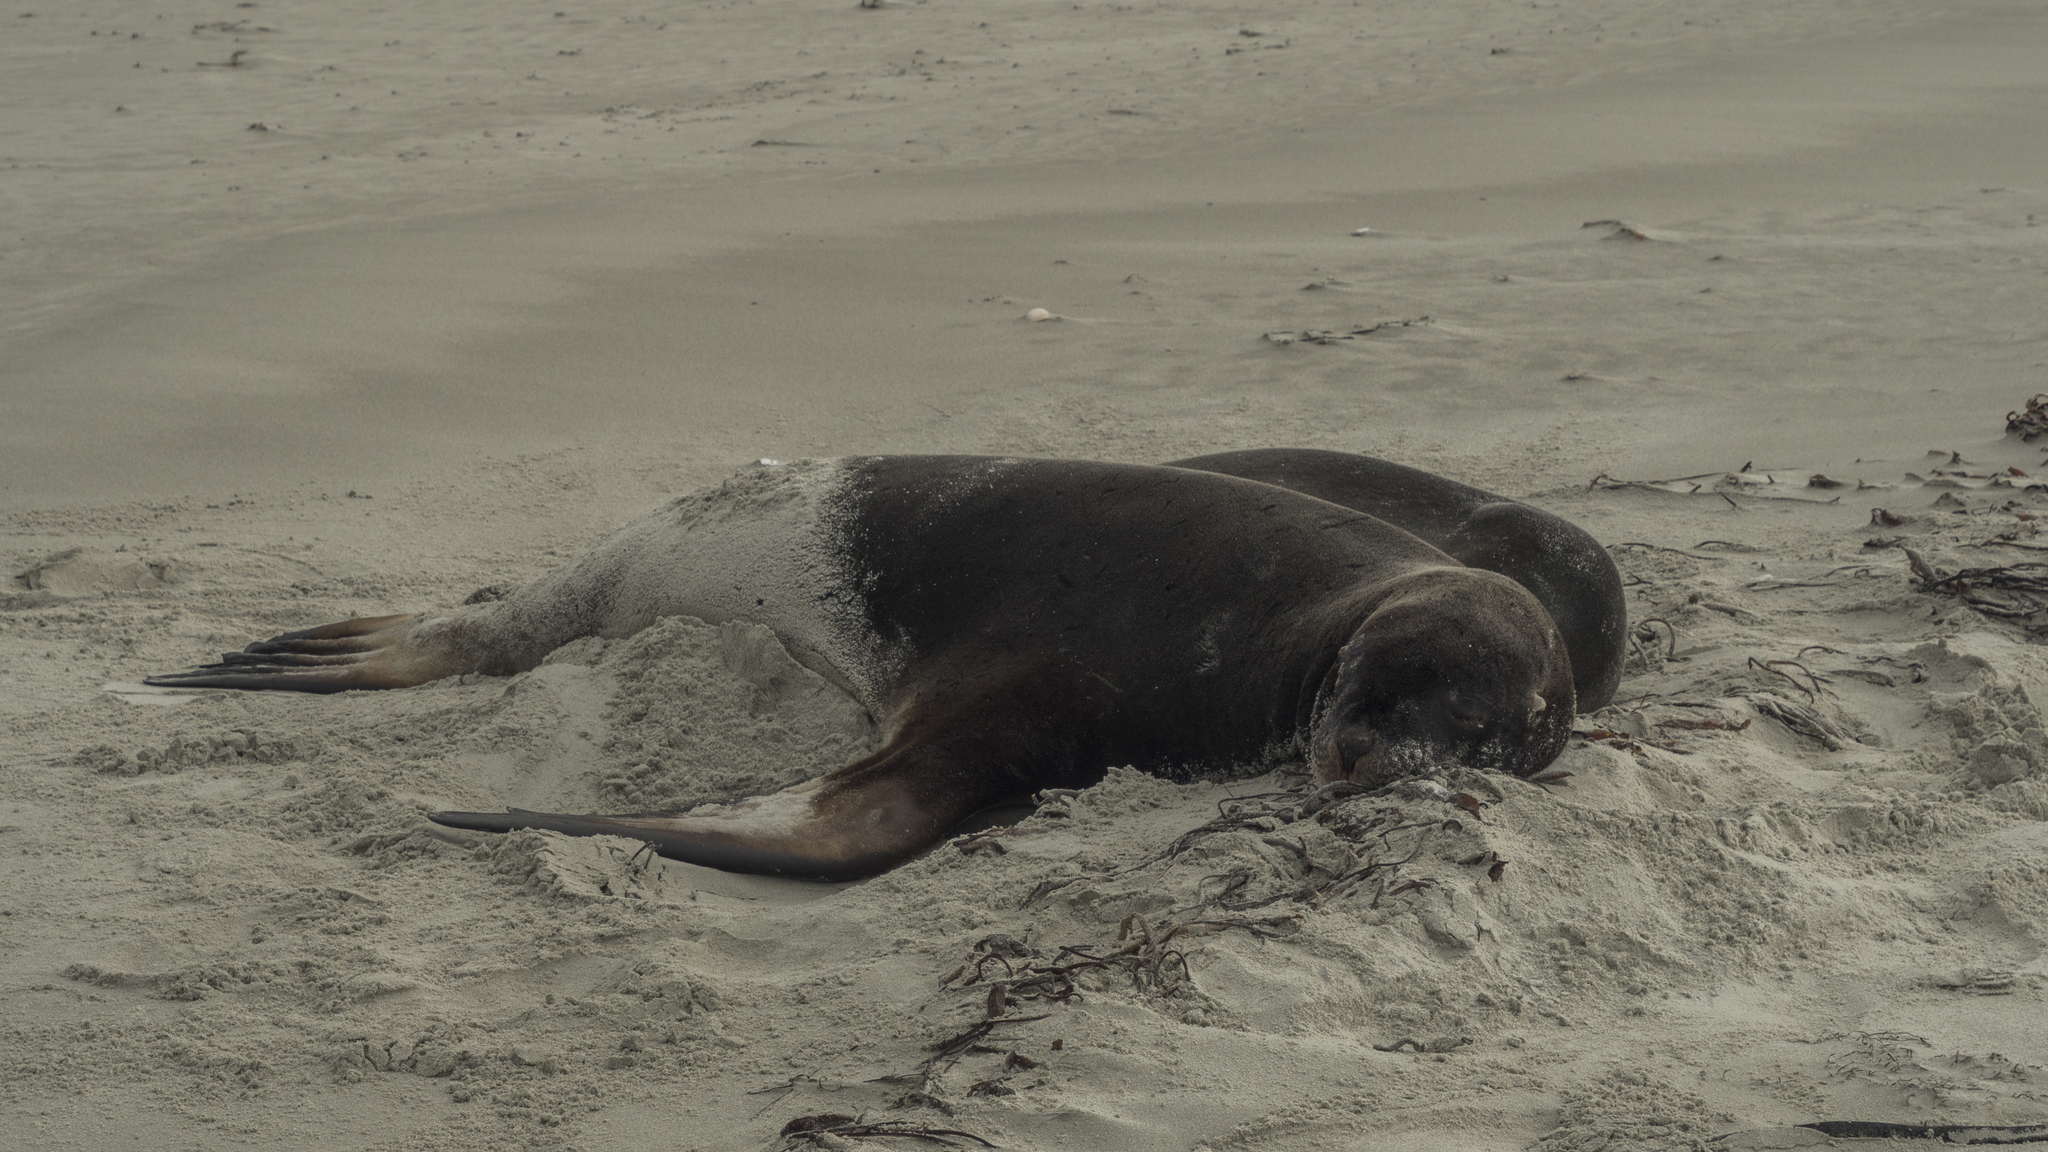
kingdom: Animalia
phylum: Chordata
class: Mammalia
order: Carnivora
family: Otariidae
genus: Phocarctos
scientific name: Phocarctos hookeri
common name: New zealand sea lion
